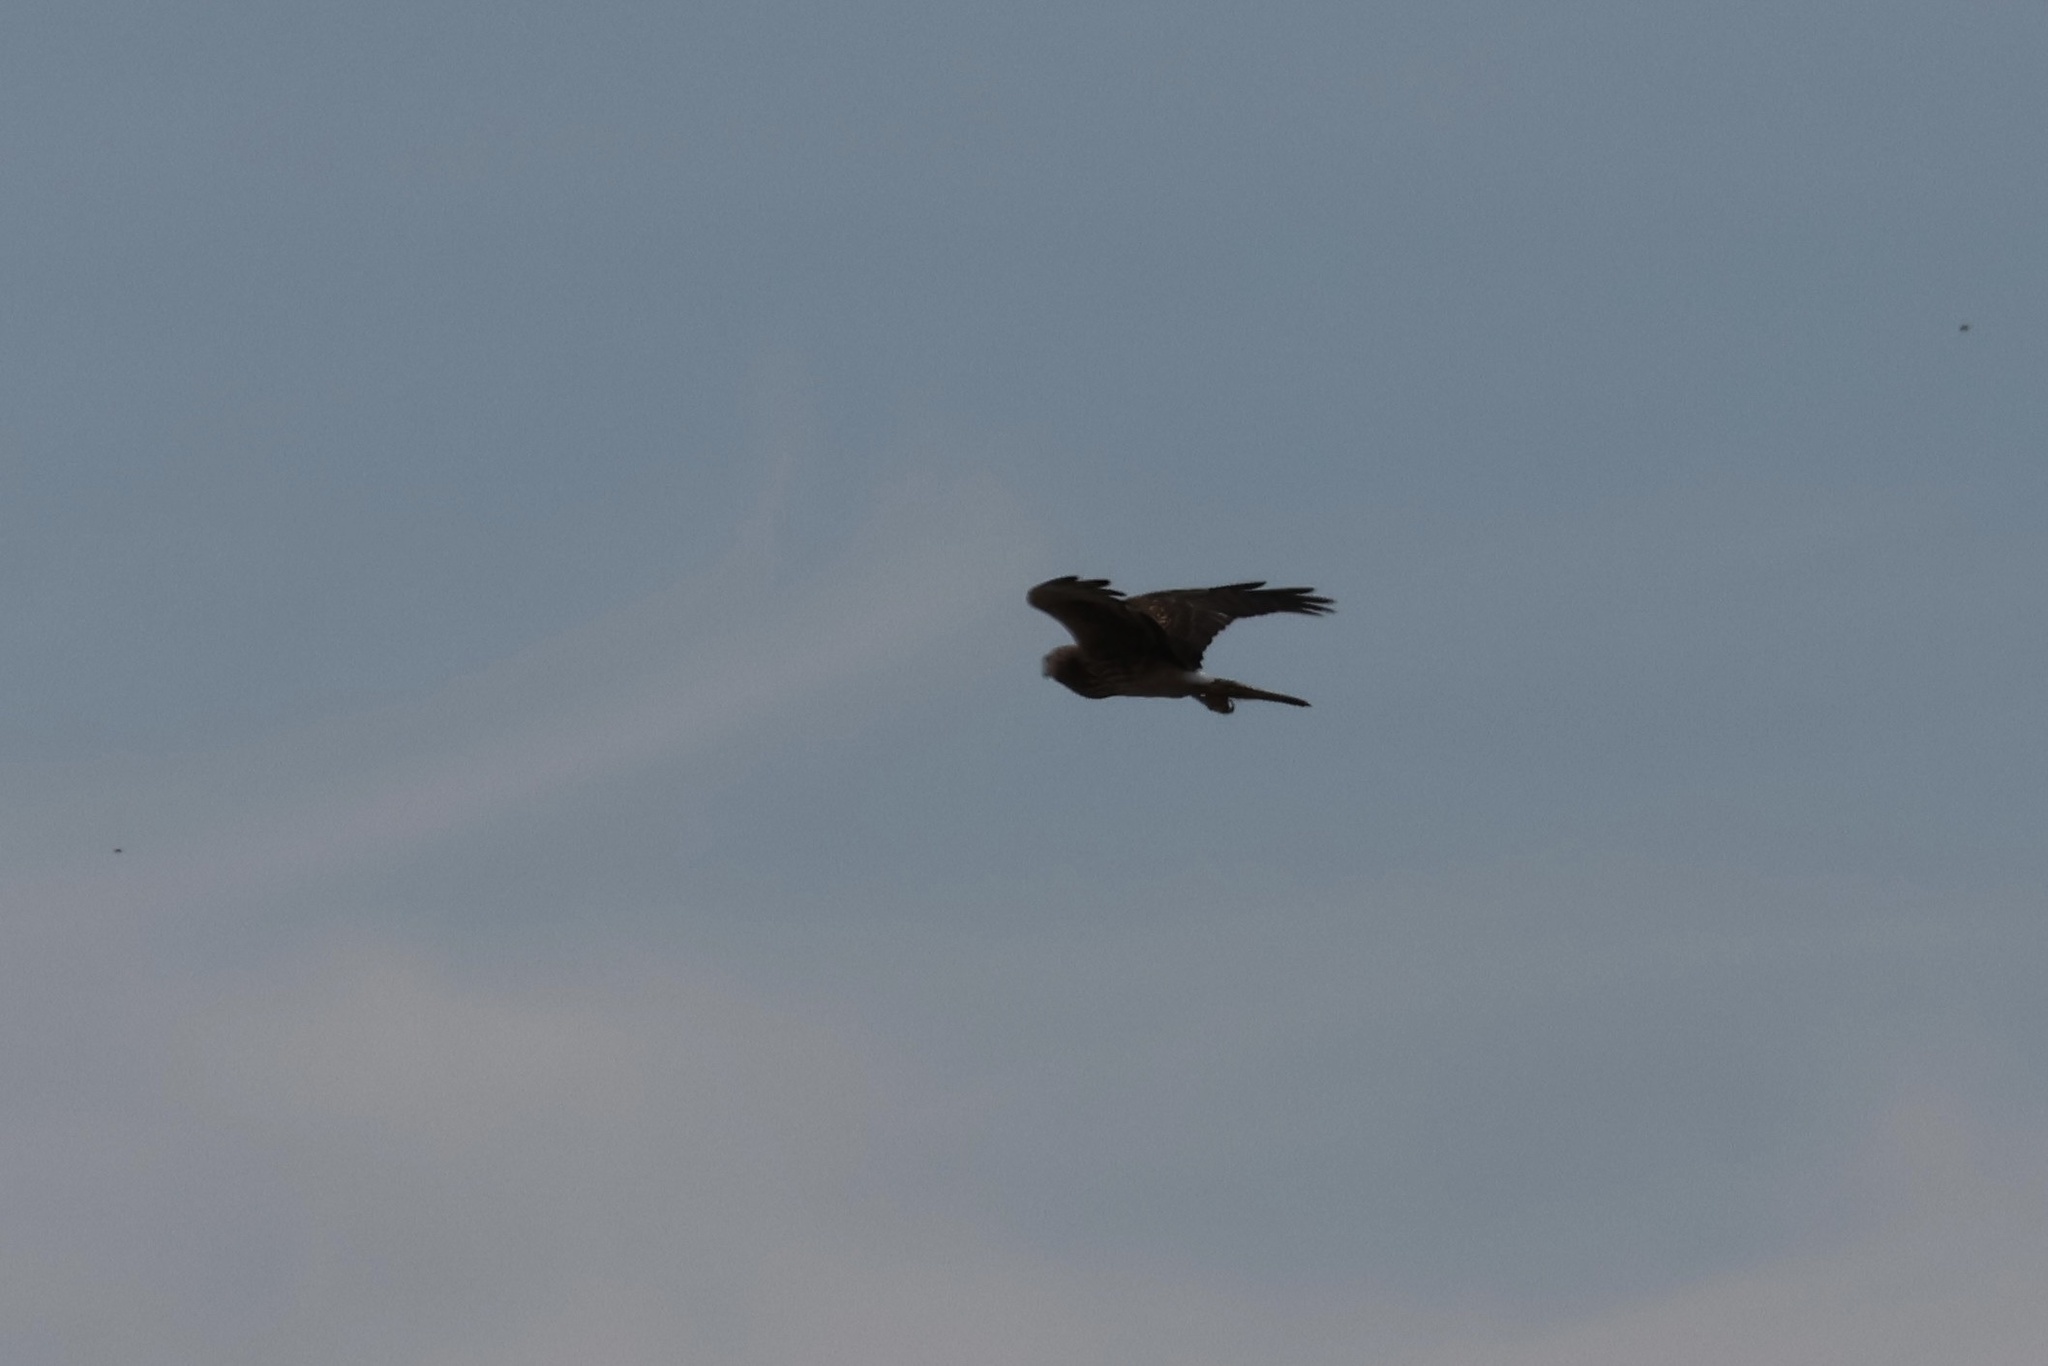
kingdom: Animalia
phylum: Chordata
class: Aves
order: Accipitriformes
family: Accipitridae
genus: Circus
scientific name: Circus cyaneus
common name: Hen harrier
